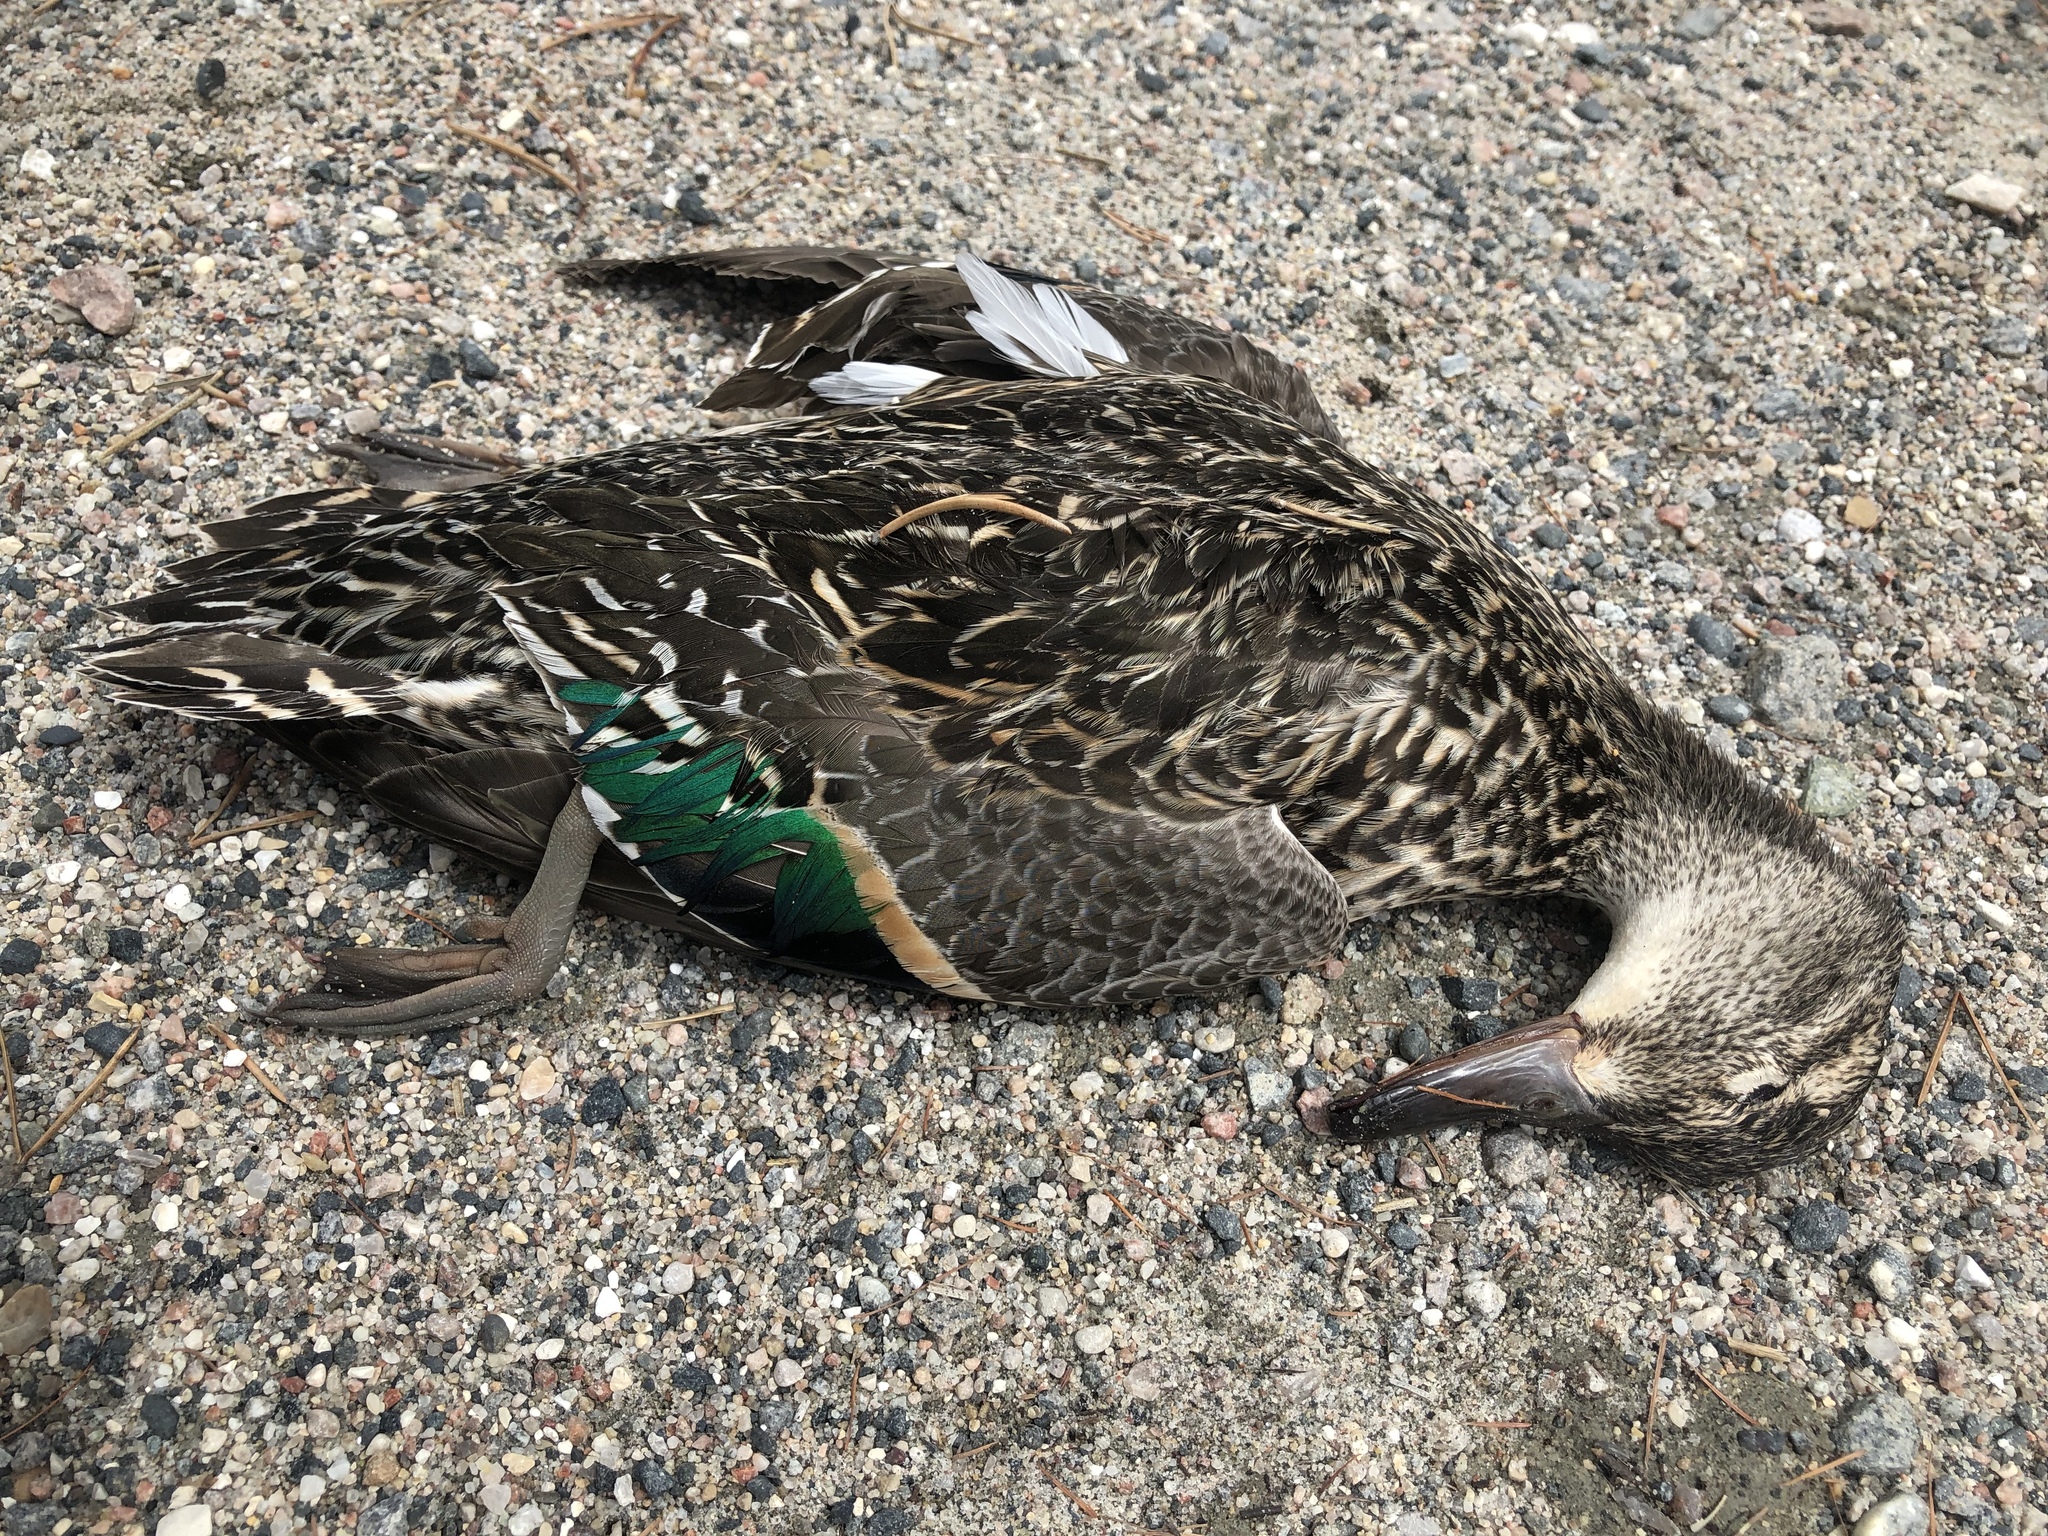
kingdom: Animalia
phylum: Chordata
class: Aves
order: Anseriformes
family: Anatidae
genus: Anas
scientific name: Anas crecca
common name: Eurasian teal
